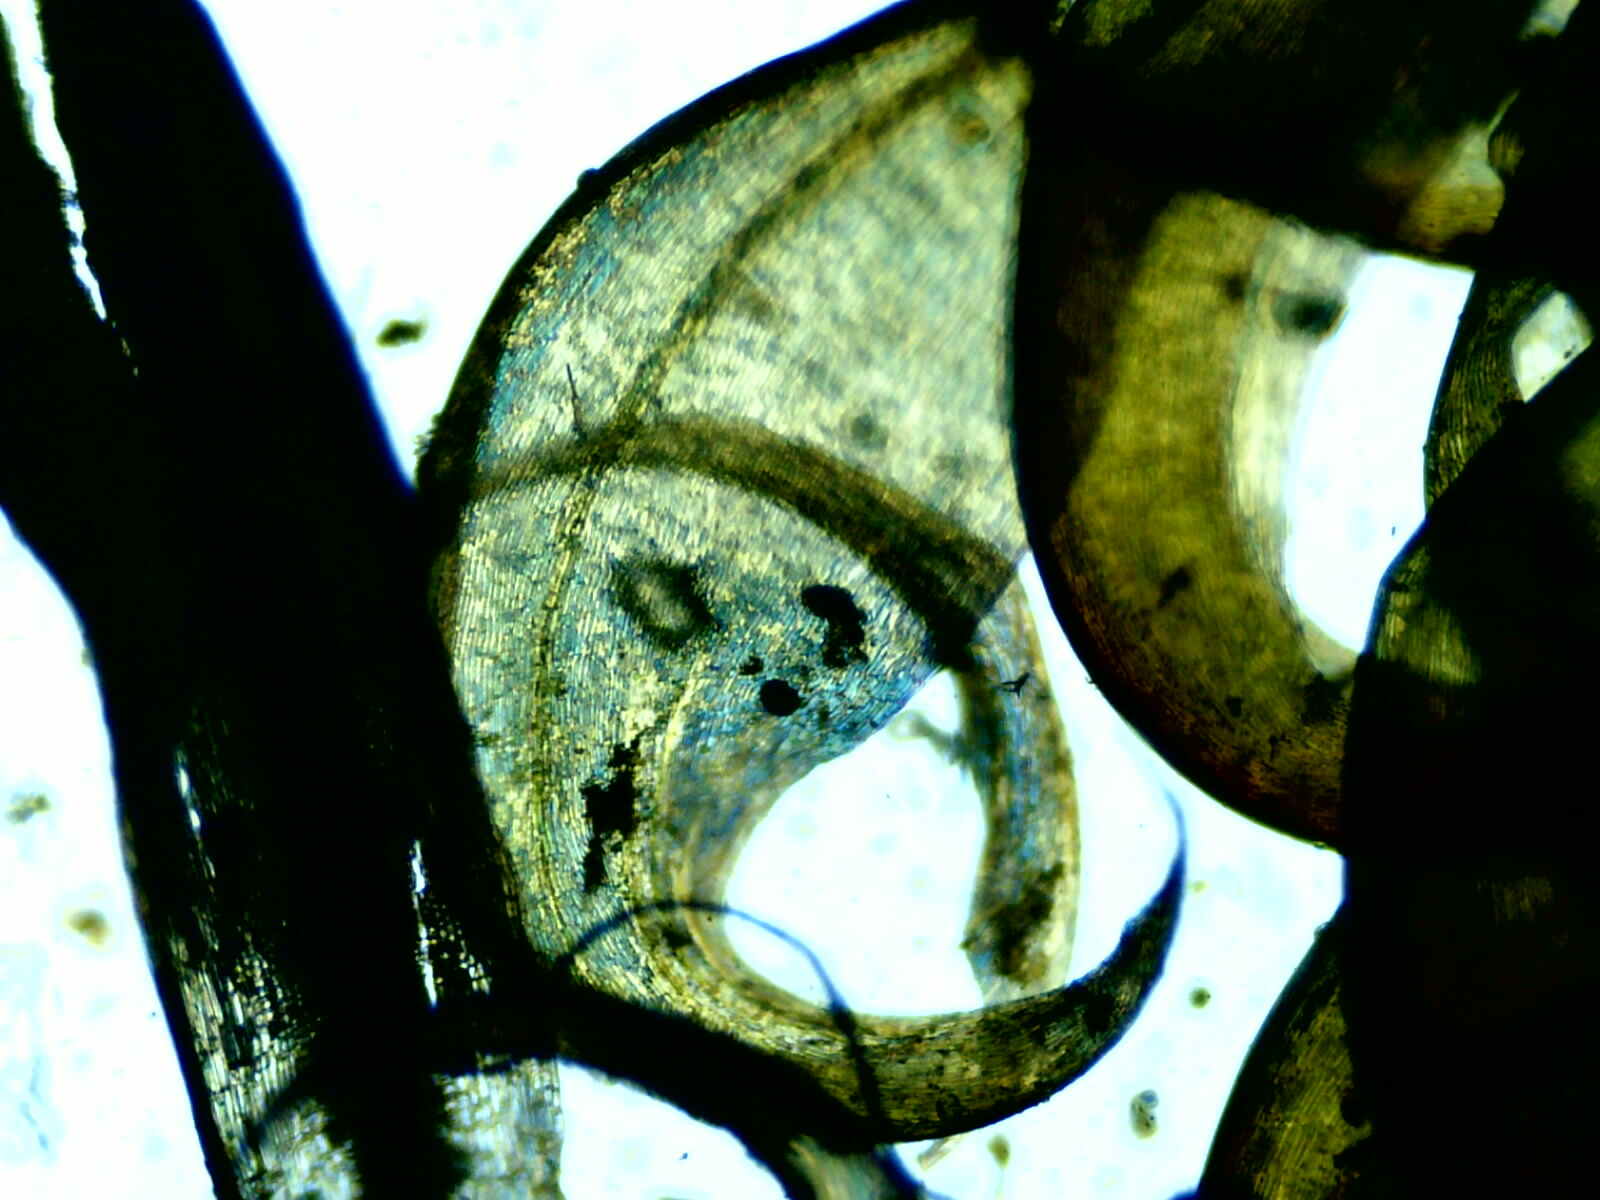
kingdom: Plantae
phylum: Bryophyta
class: Bryopsida
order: Hypnales
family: Scorpidiaceae
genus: Scorpidium
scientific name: Scorpidium cossonii
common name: Cosson's hook moss
